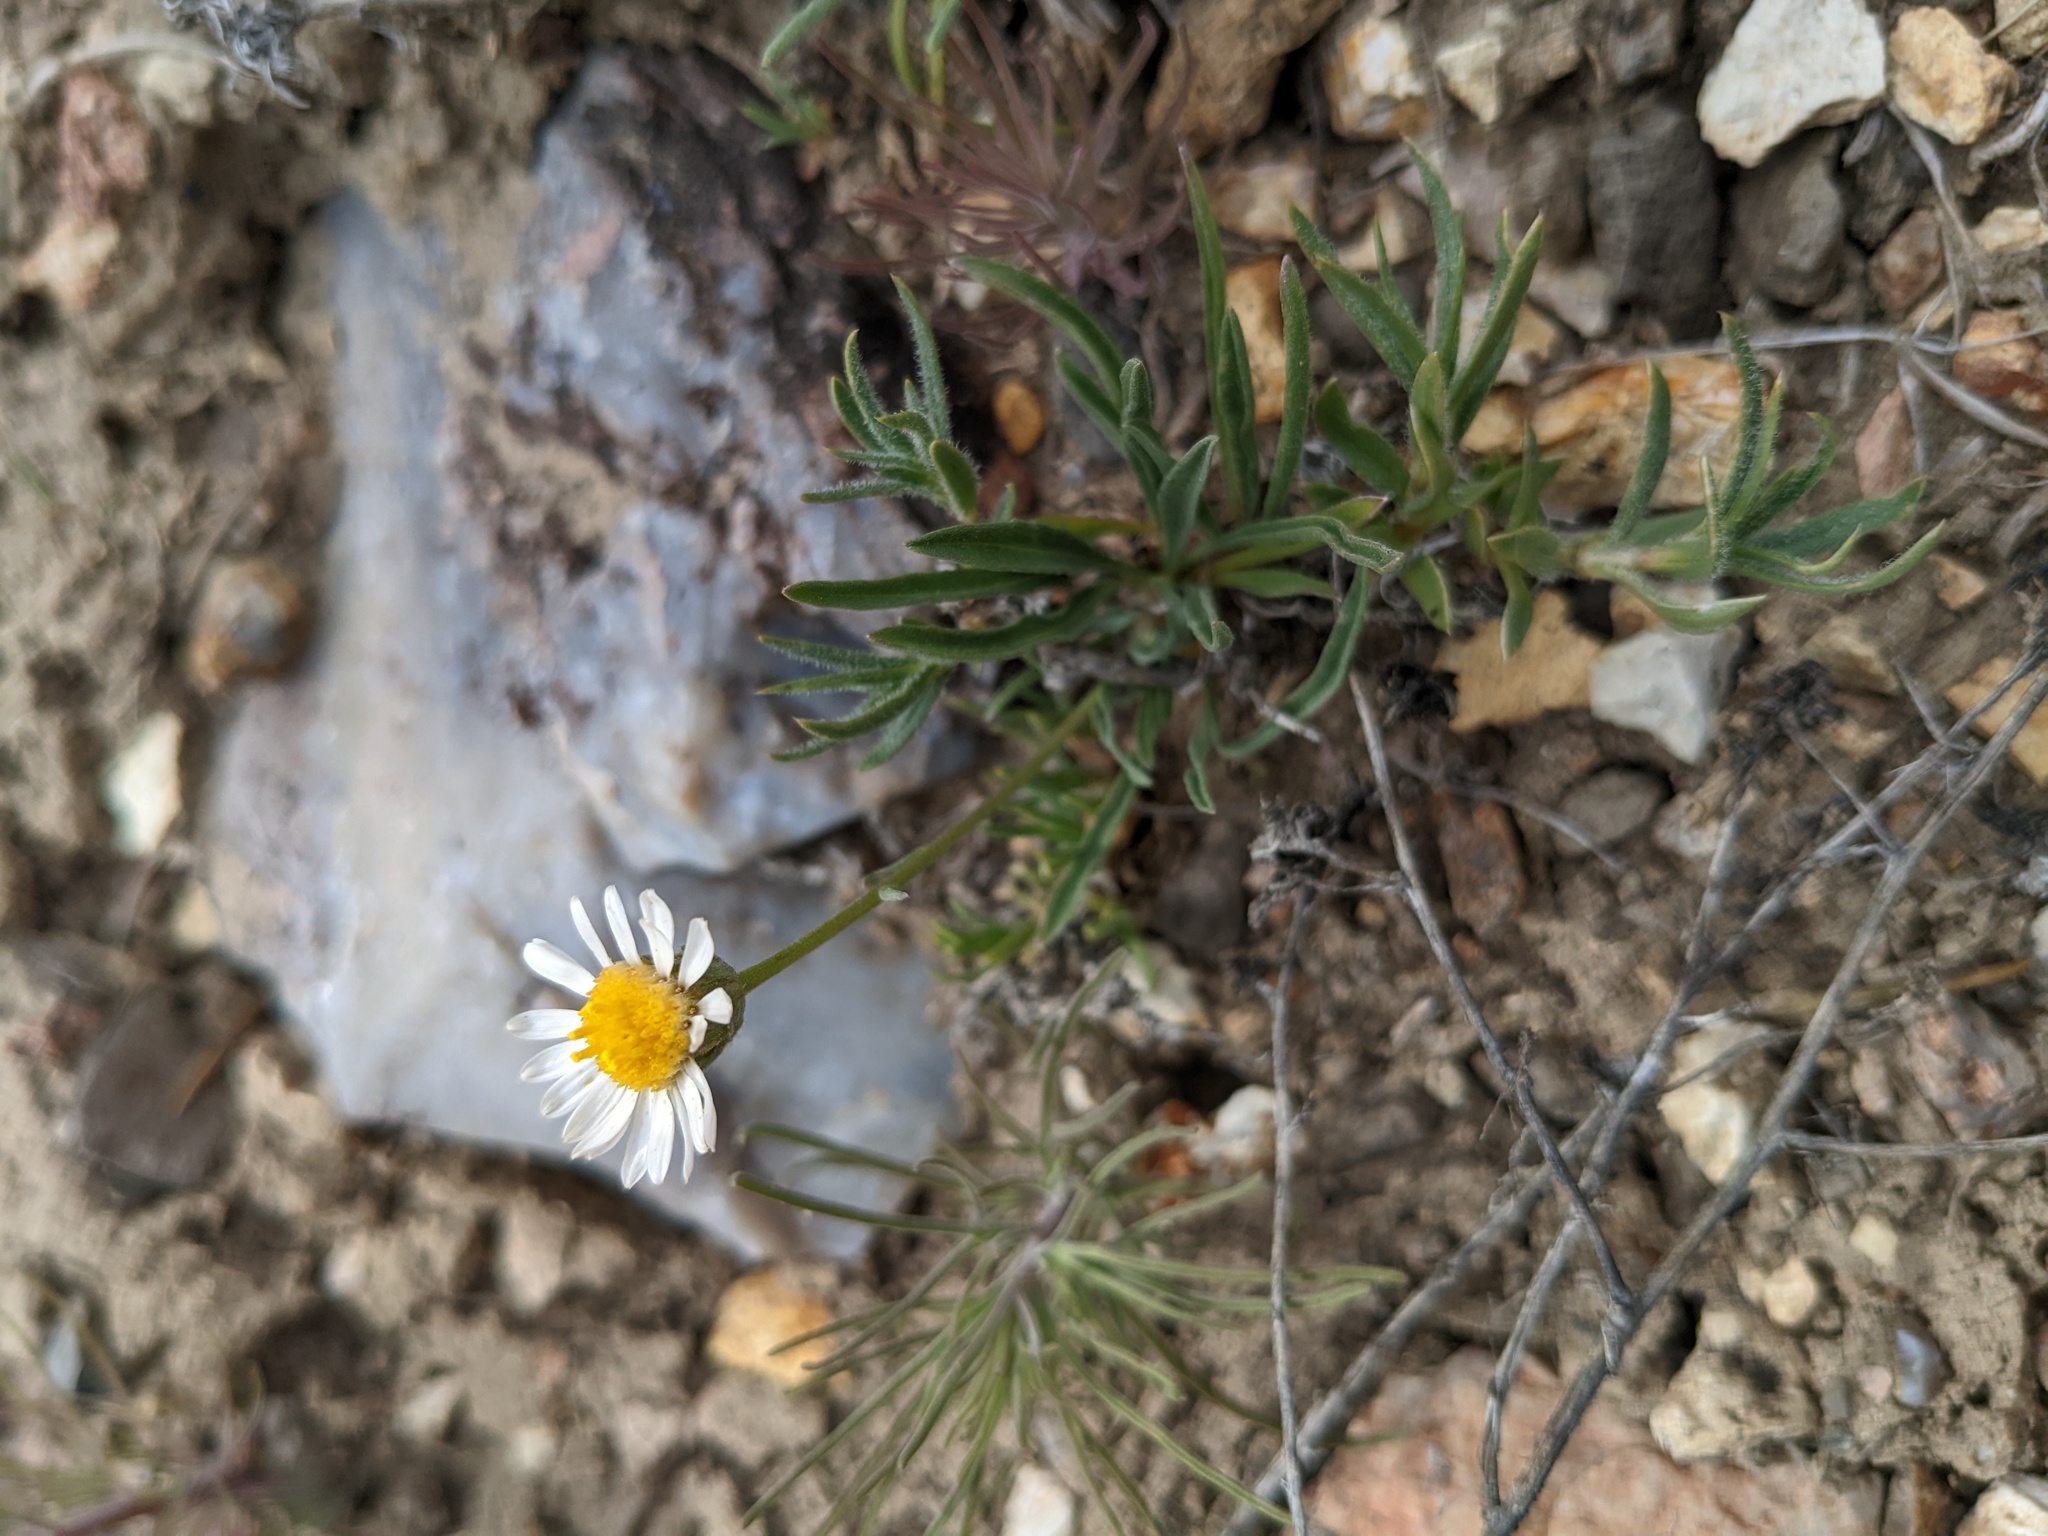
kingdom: Plantae
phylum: Tracheophyta
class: Magnoliopsida
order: Asterales
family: Asteraceae
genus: Erigeron
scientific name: Erigeron eatonii
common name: Eaton's fleabane
